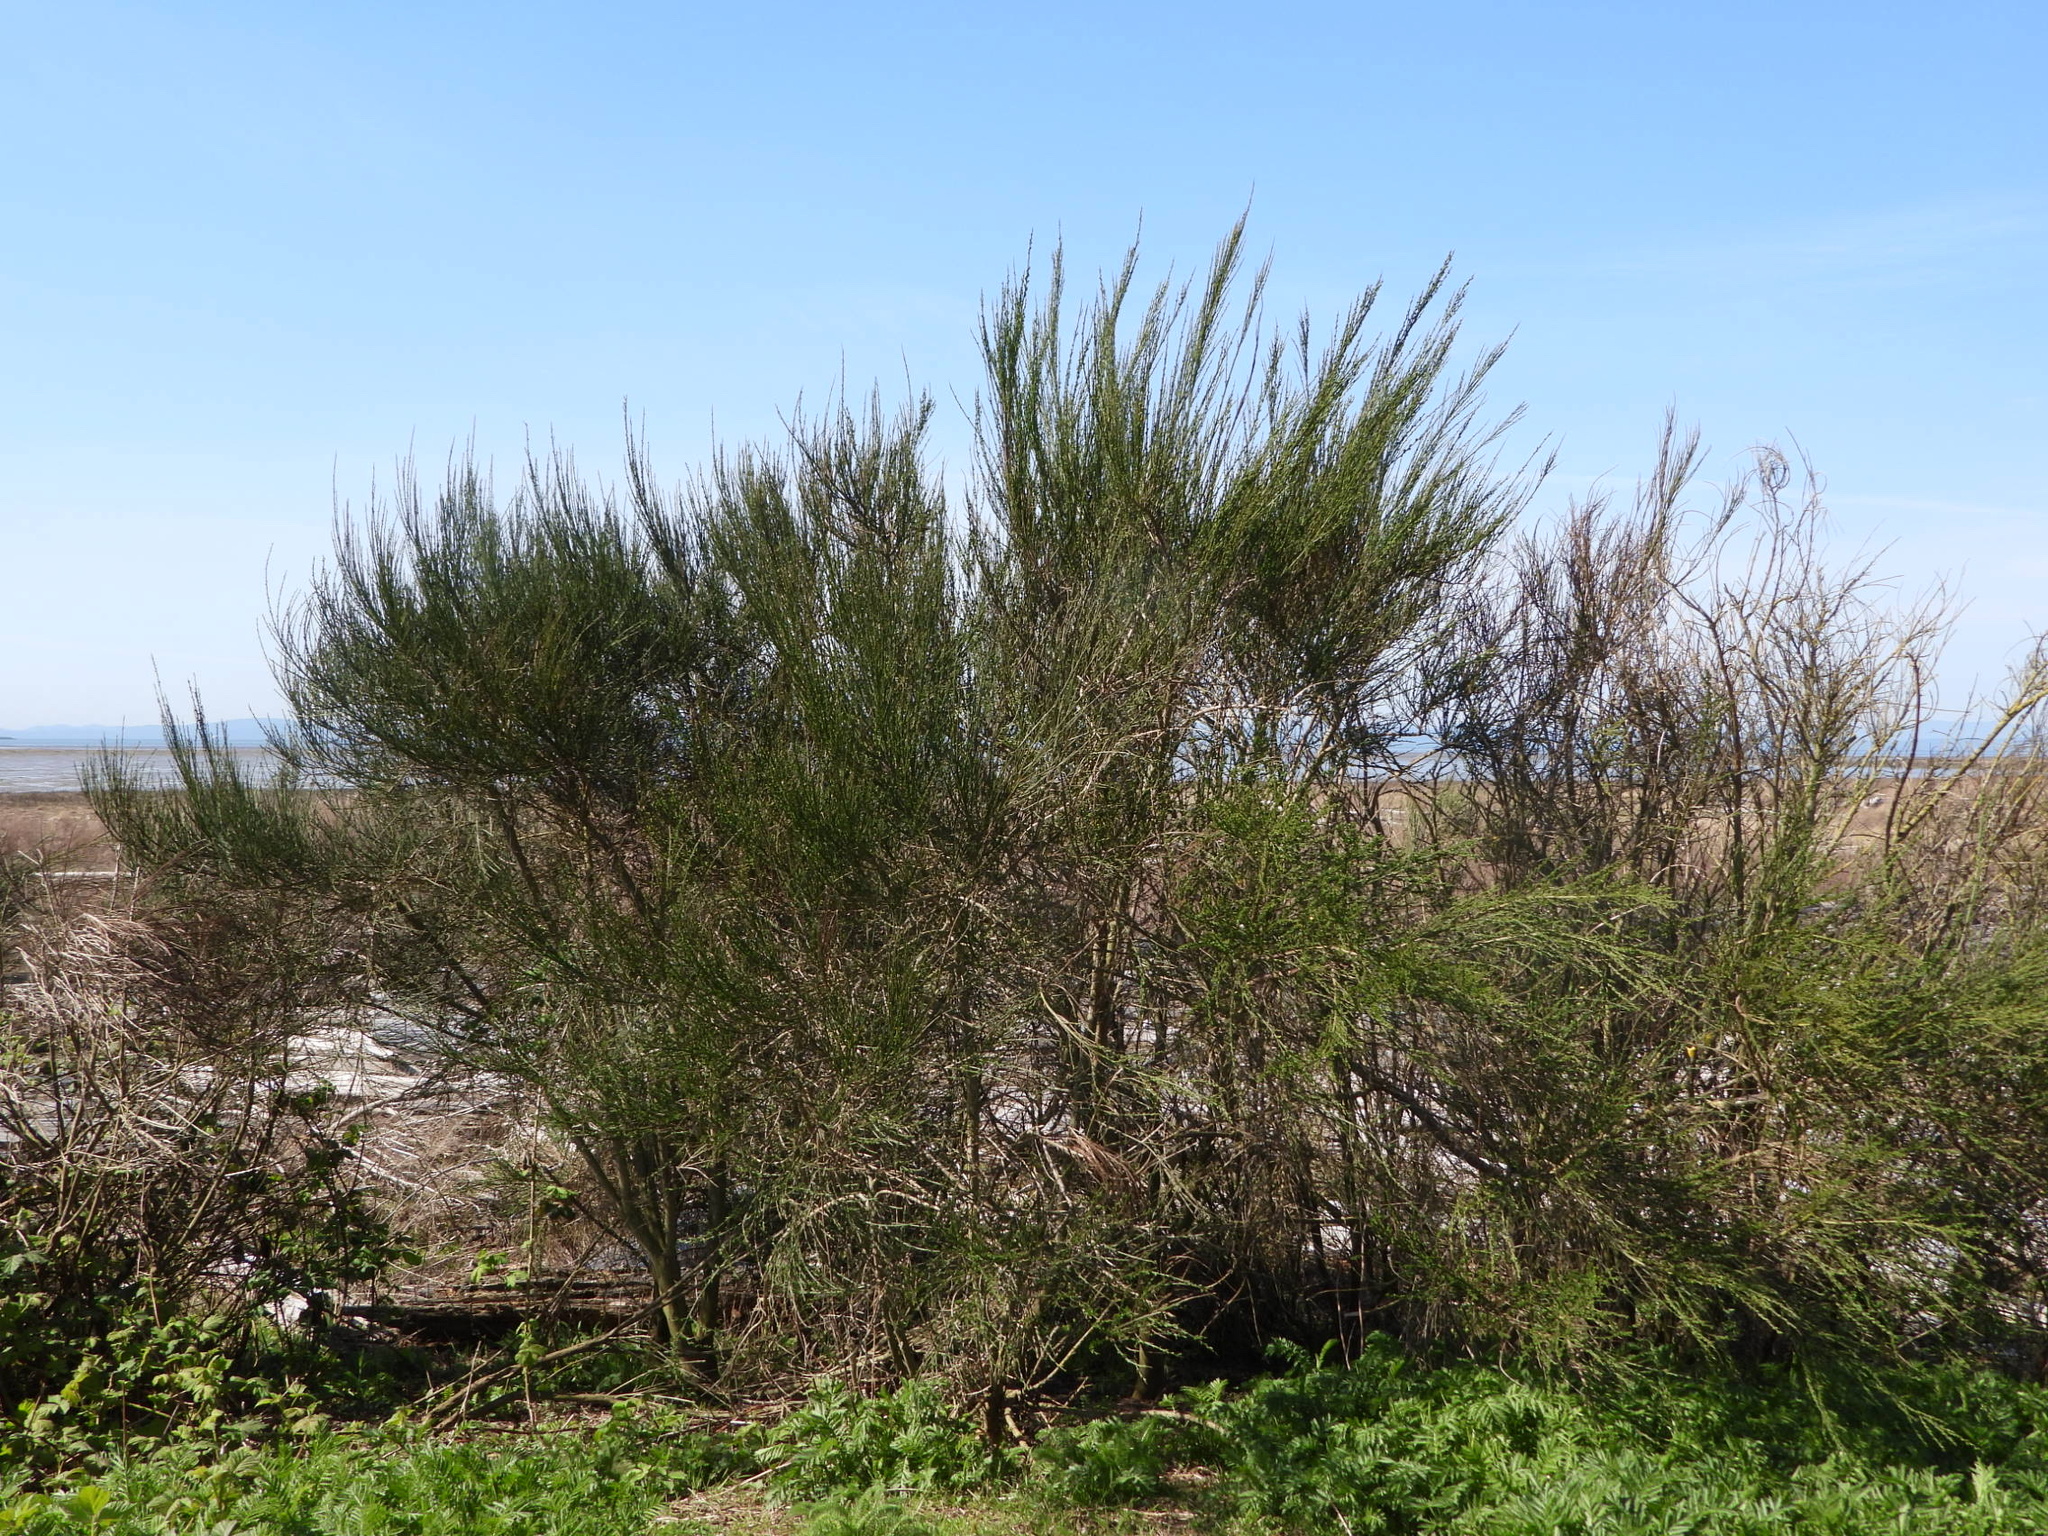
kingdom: Plantae
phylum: Tracheophyta
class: Magnoliopsida
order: Fabales
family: Fabaceae
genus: Cytisus
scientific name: Cytisus scoparius
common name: Scotch broom
